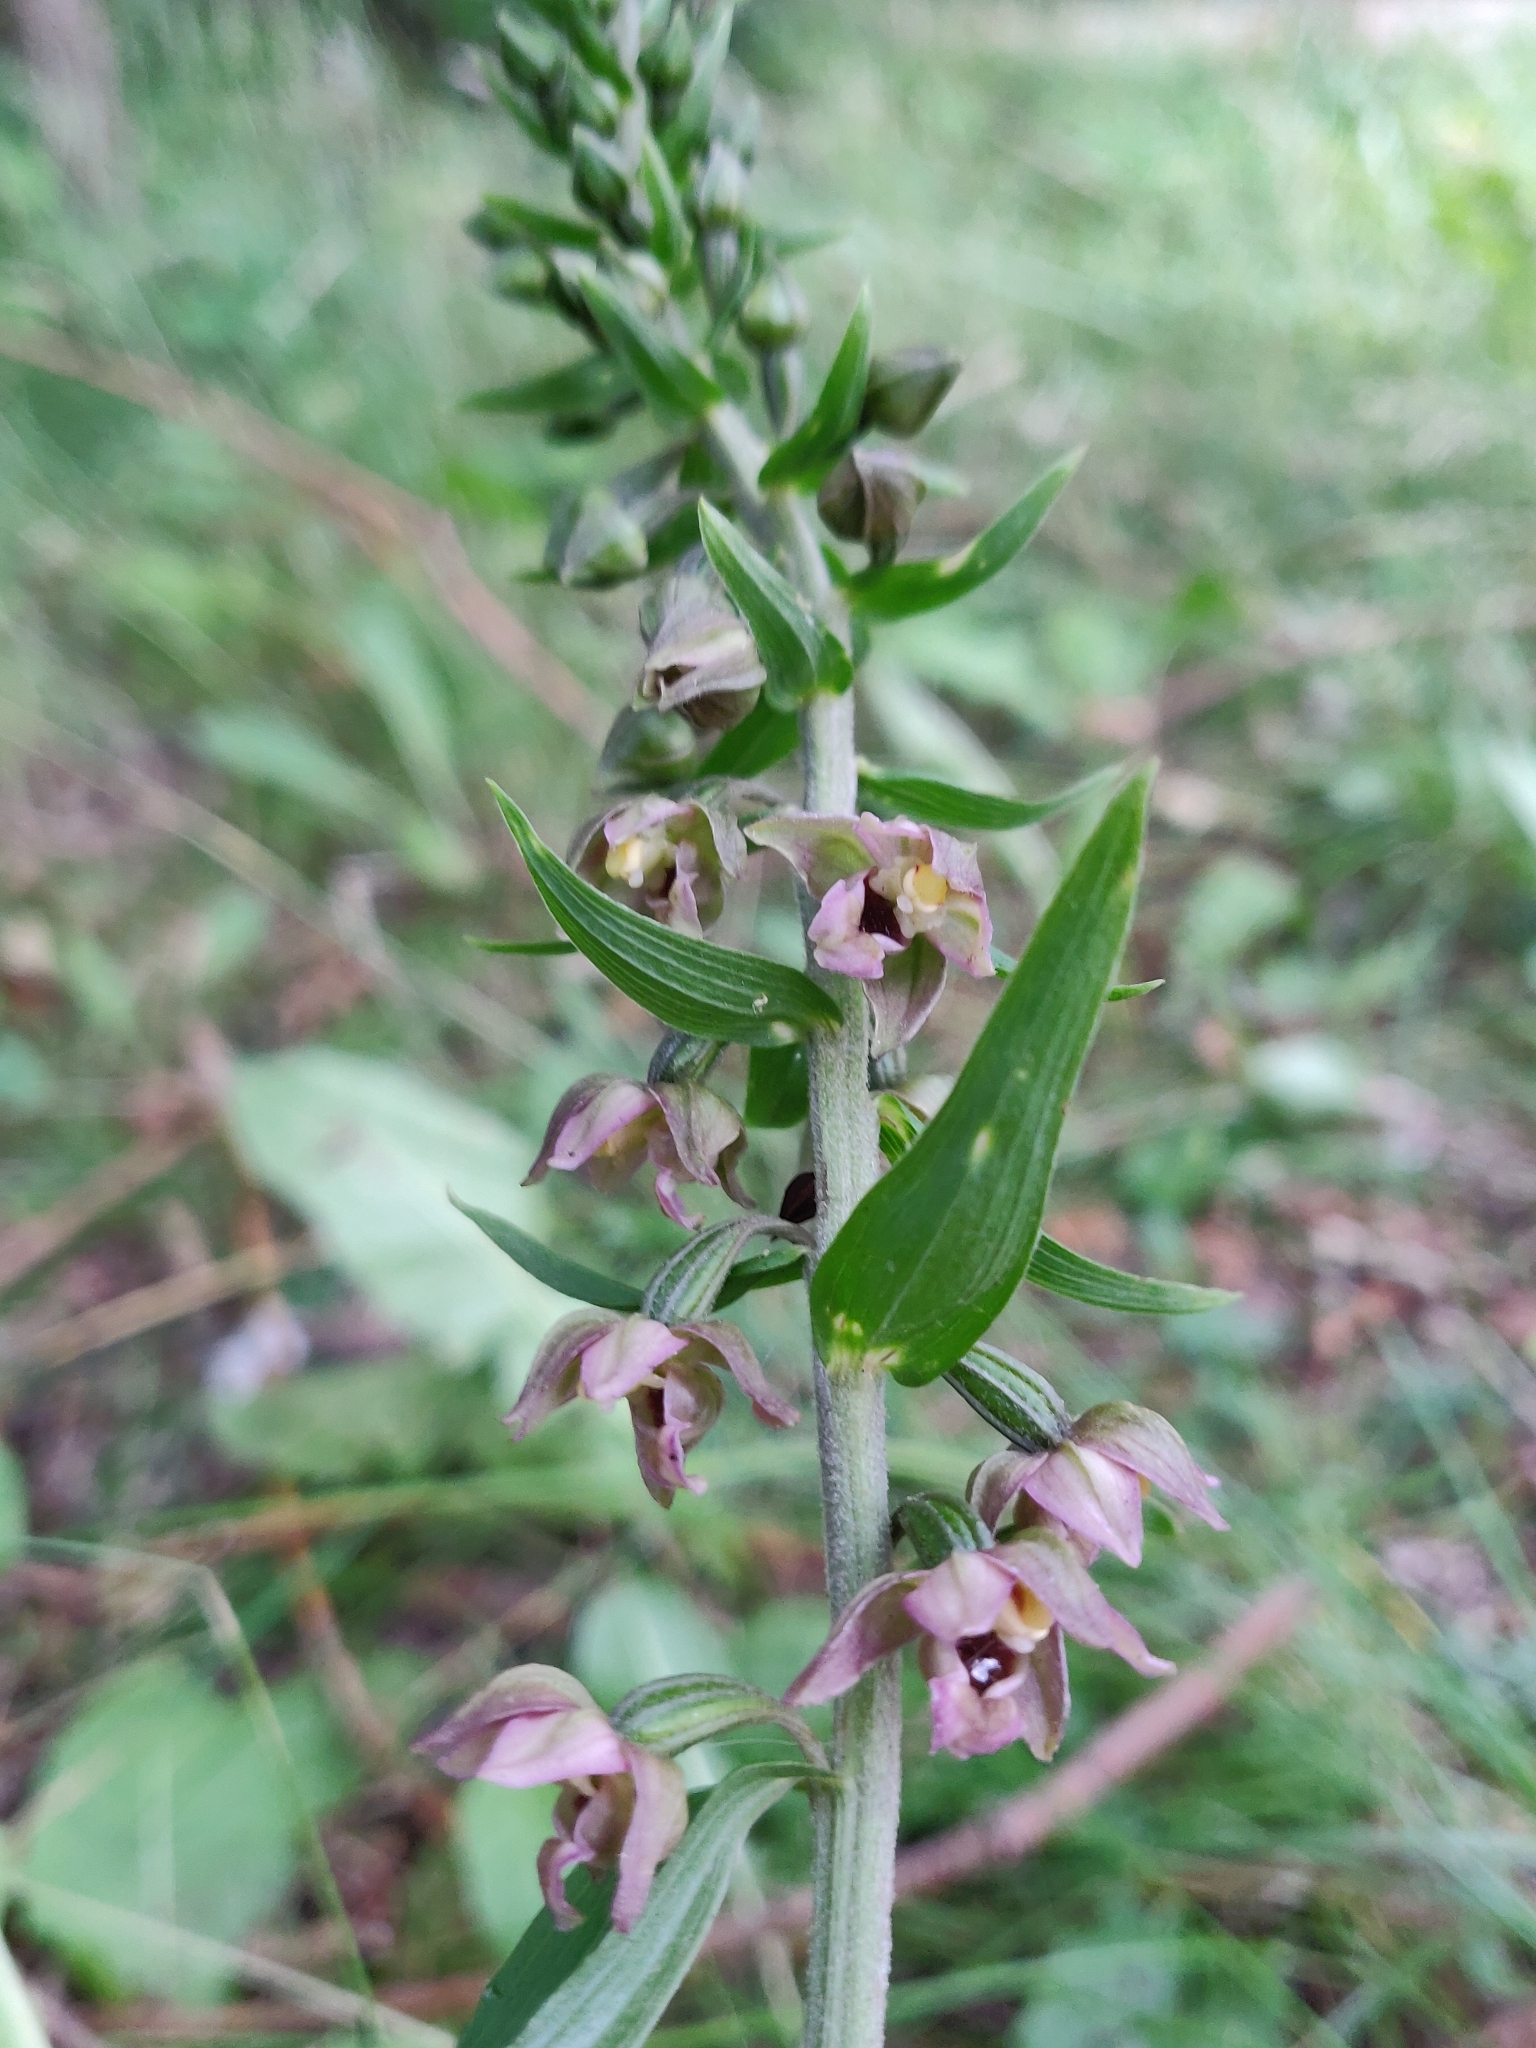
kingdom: Plantae
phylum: Tracheophyta
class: Liliopsida
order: Asparagales
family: Orchidaceae
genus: Epipactis
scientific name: Epipactis dunensis
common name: Dune helleborine
